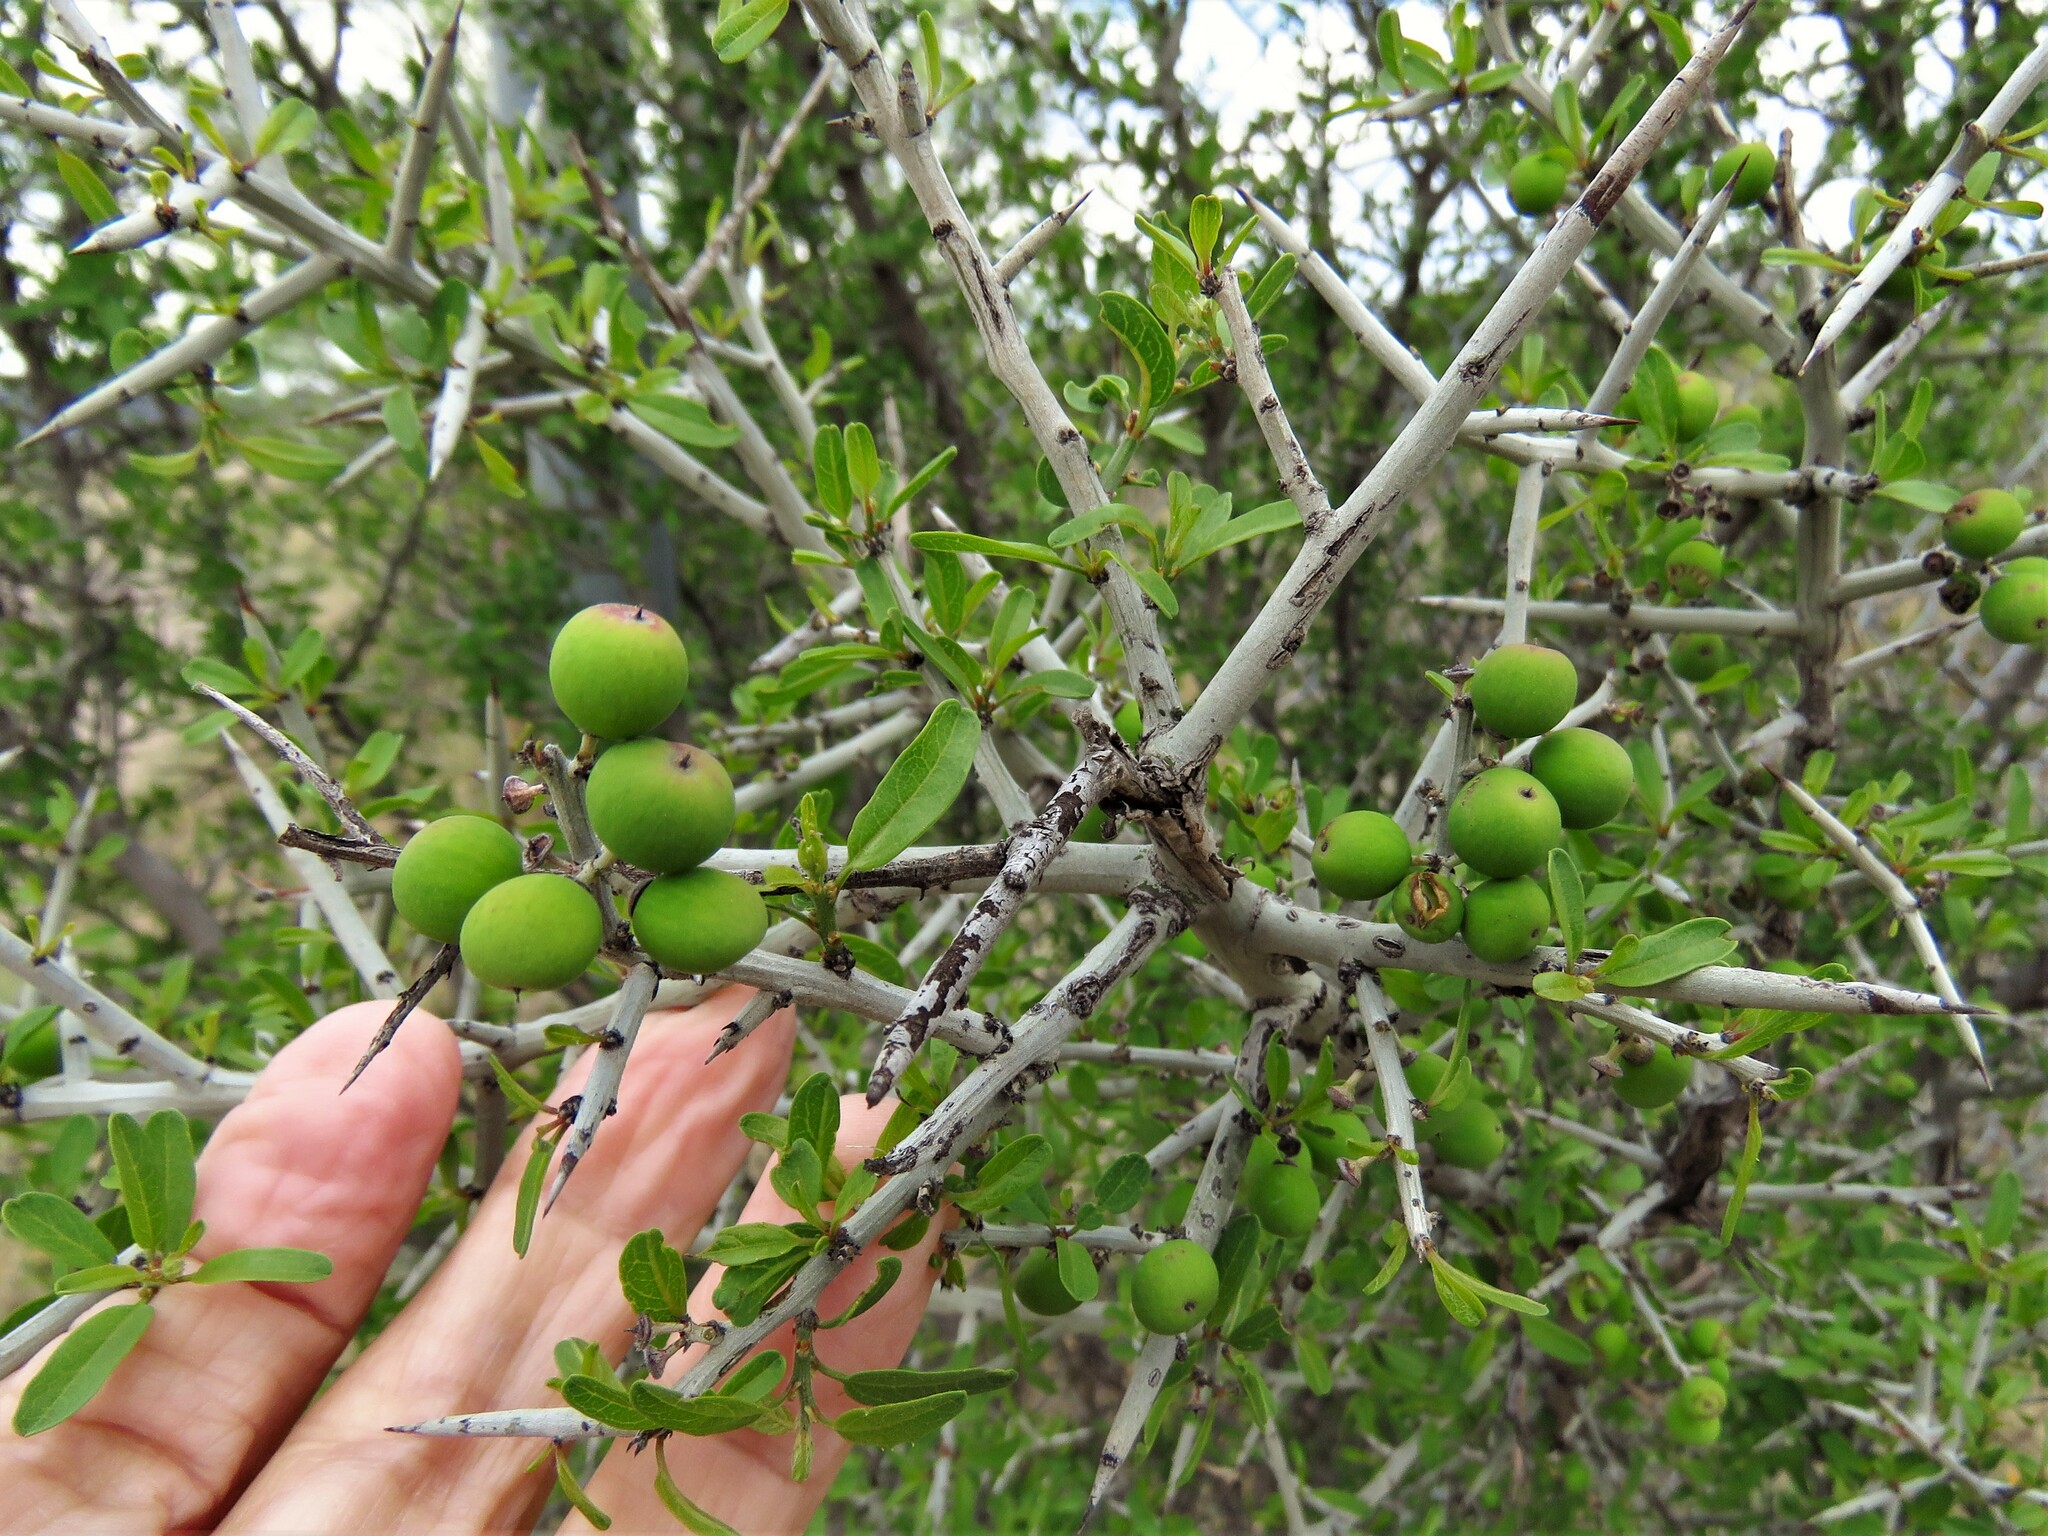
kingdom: Plantae
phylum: Tracheophyta
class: Magnoliopsida
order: Rosales
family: Rhamnaceae
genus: Sarcomphalus
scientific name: Sarcomphalus obtusifolius
